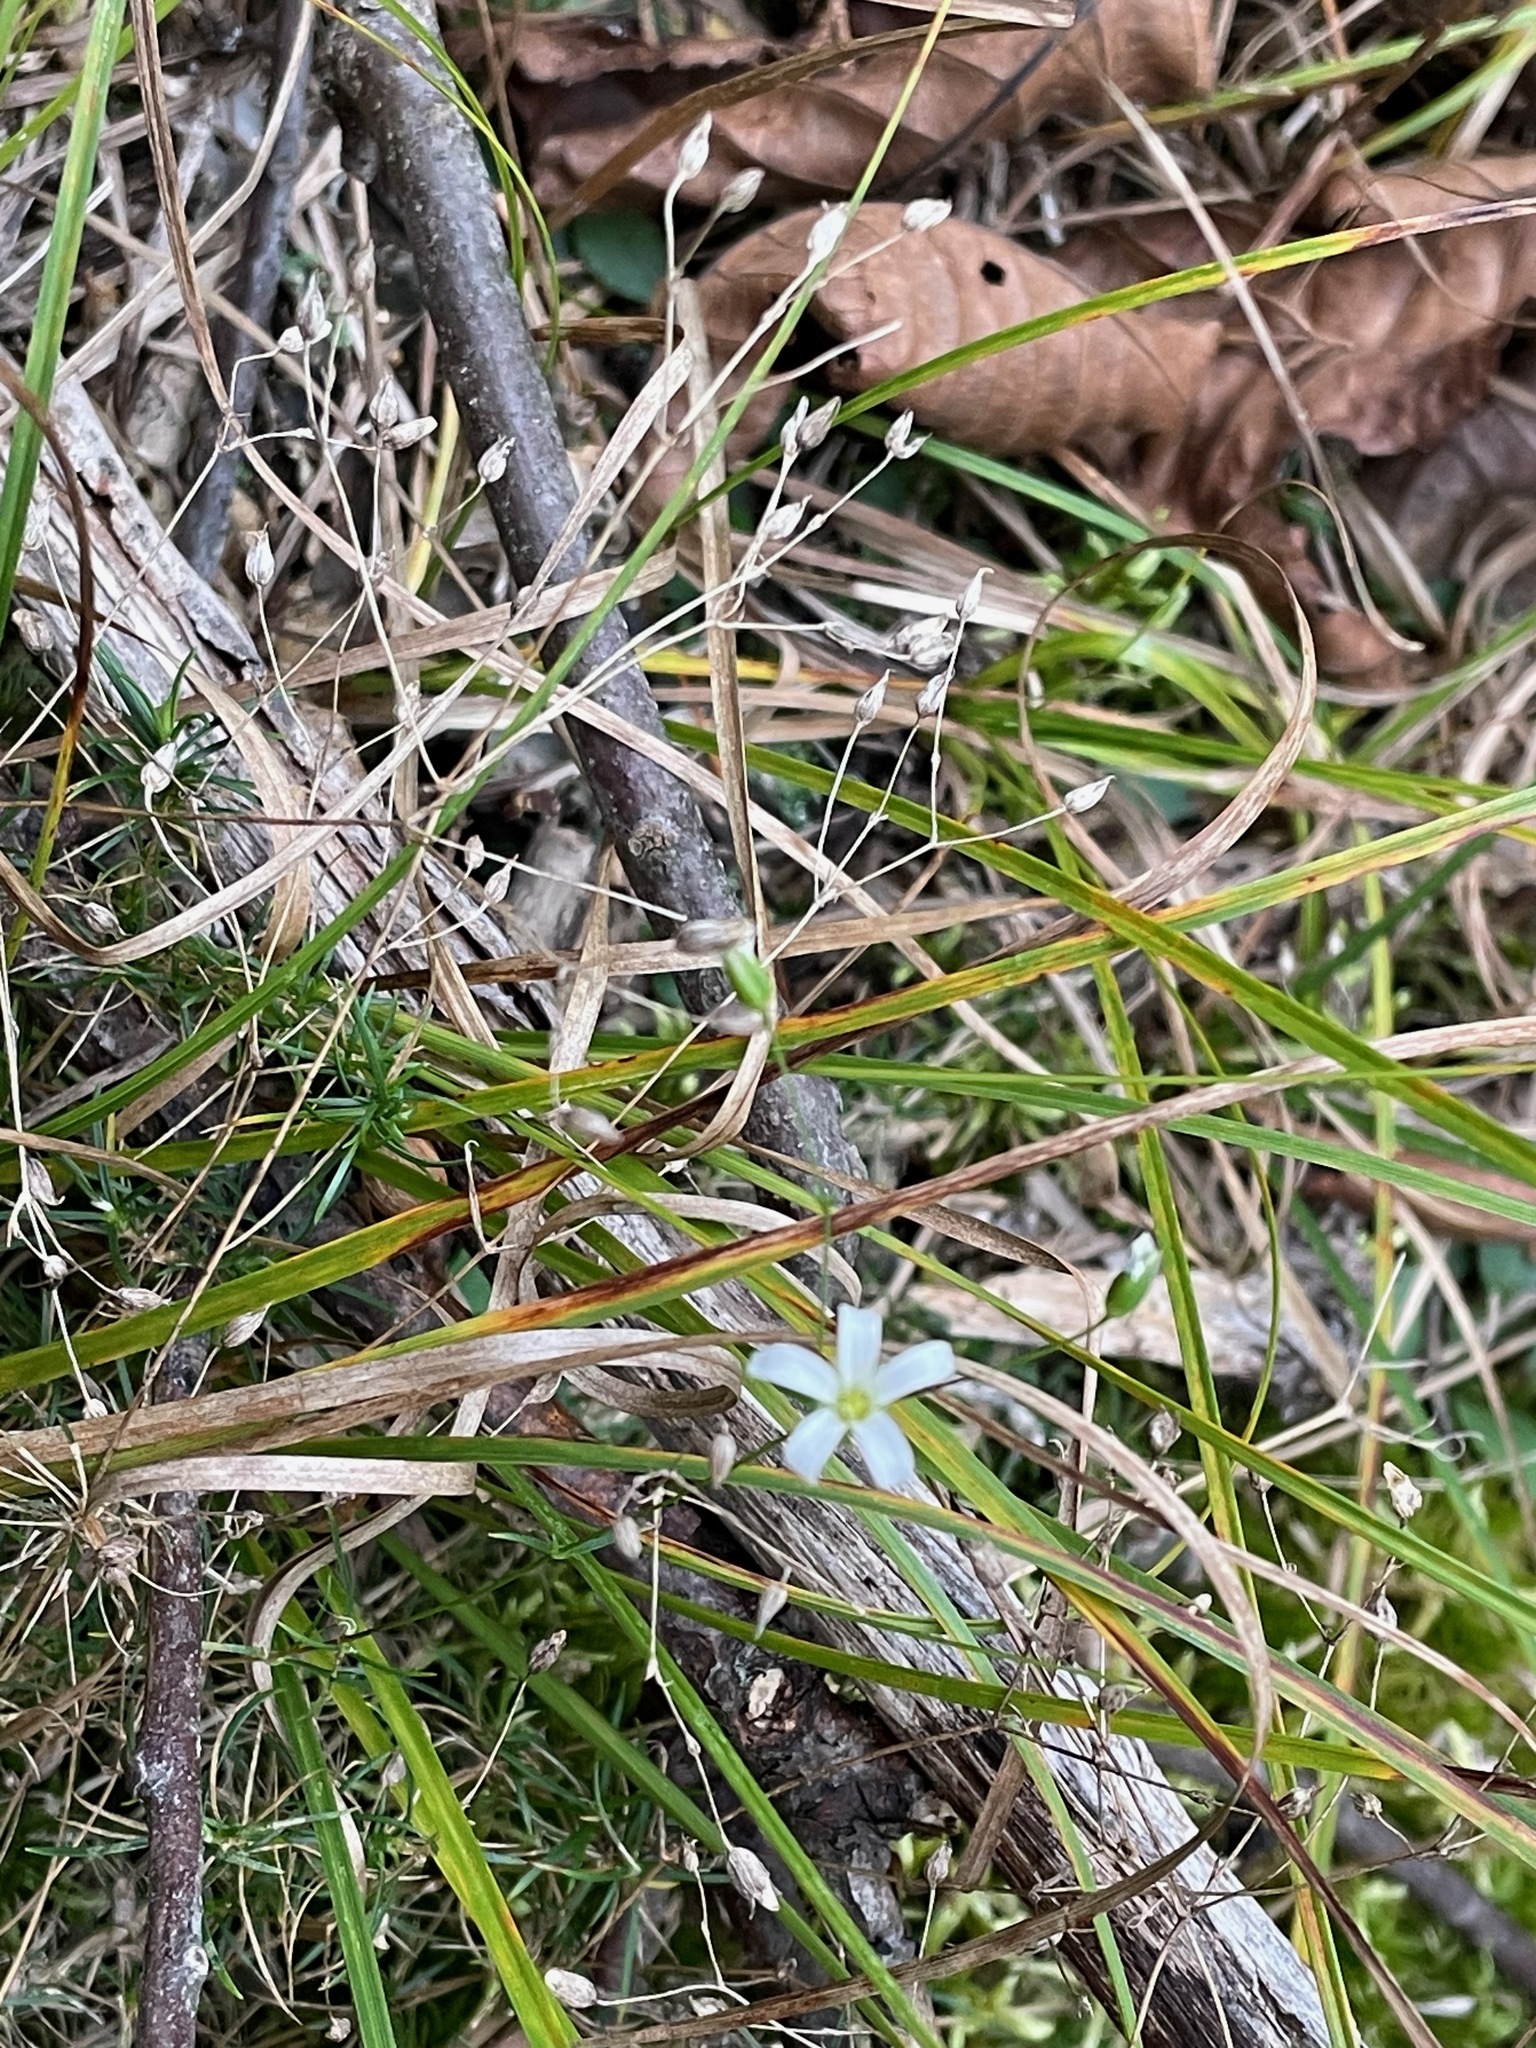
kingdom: Plantae
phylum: Tracheophyta
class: Magnoliopsida
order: Caryophyllales
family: Caryophyllaceae
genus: Sabulina
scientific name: Sabulina michauxii
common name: Michaux's stitchwort
